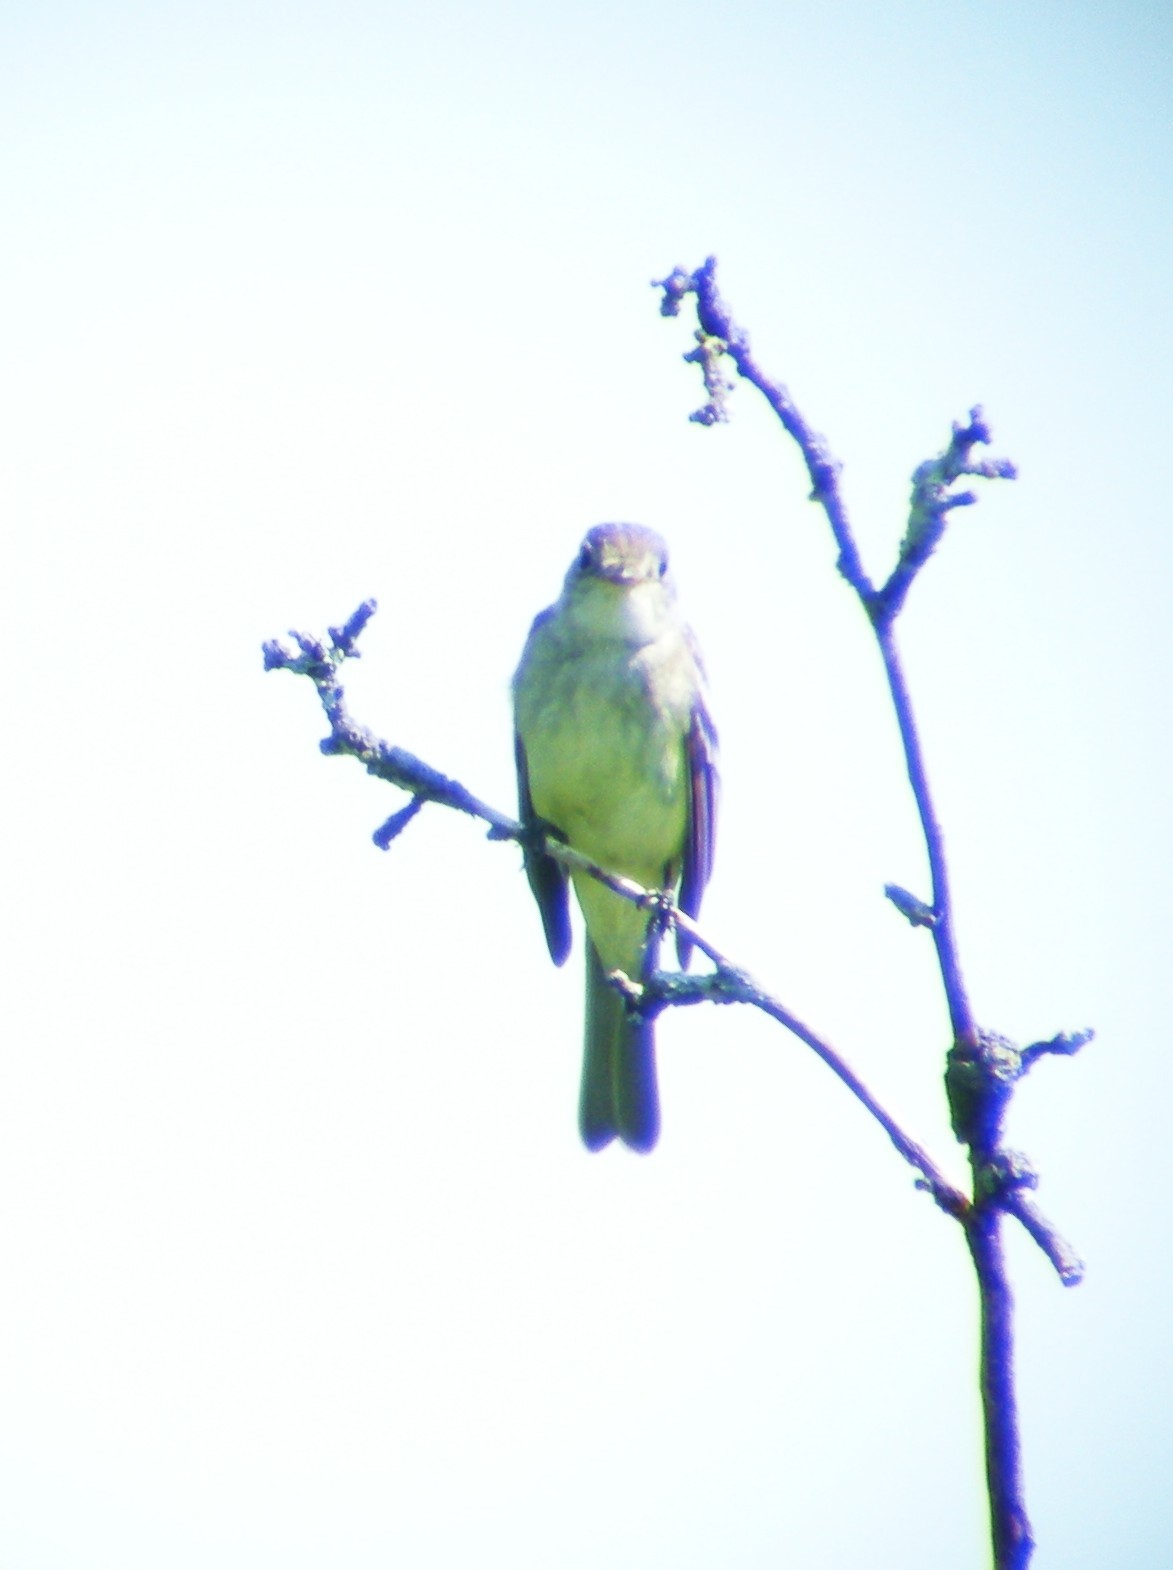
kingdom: Animalia
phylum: Chordata
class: Aves
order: Passeriformes
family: Tyrannidae
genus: Empidonax
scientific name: Empidonax traillii
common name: Willow flycatcher
